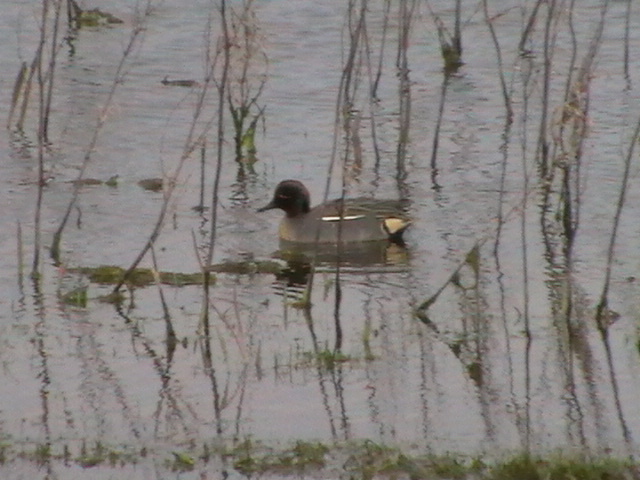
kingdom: Animalia
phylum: Chordata
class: Aves
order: Anseriformes
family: Anatidae
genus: Anas
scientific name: Anas crecca
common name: Eurasian teal
